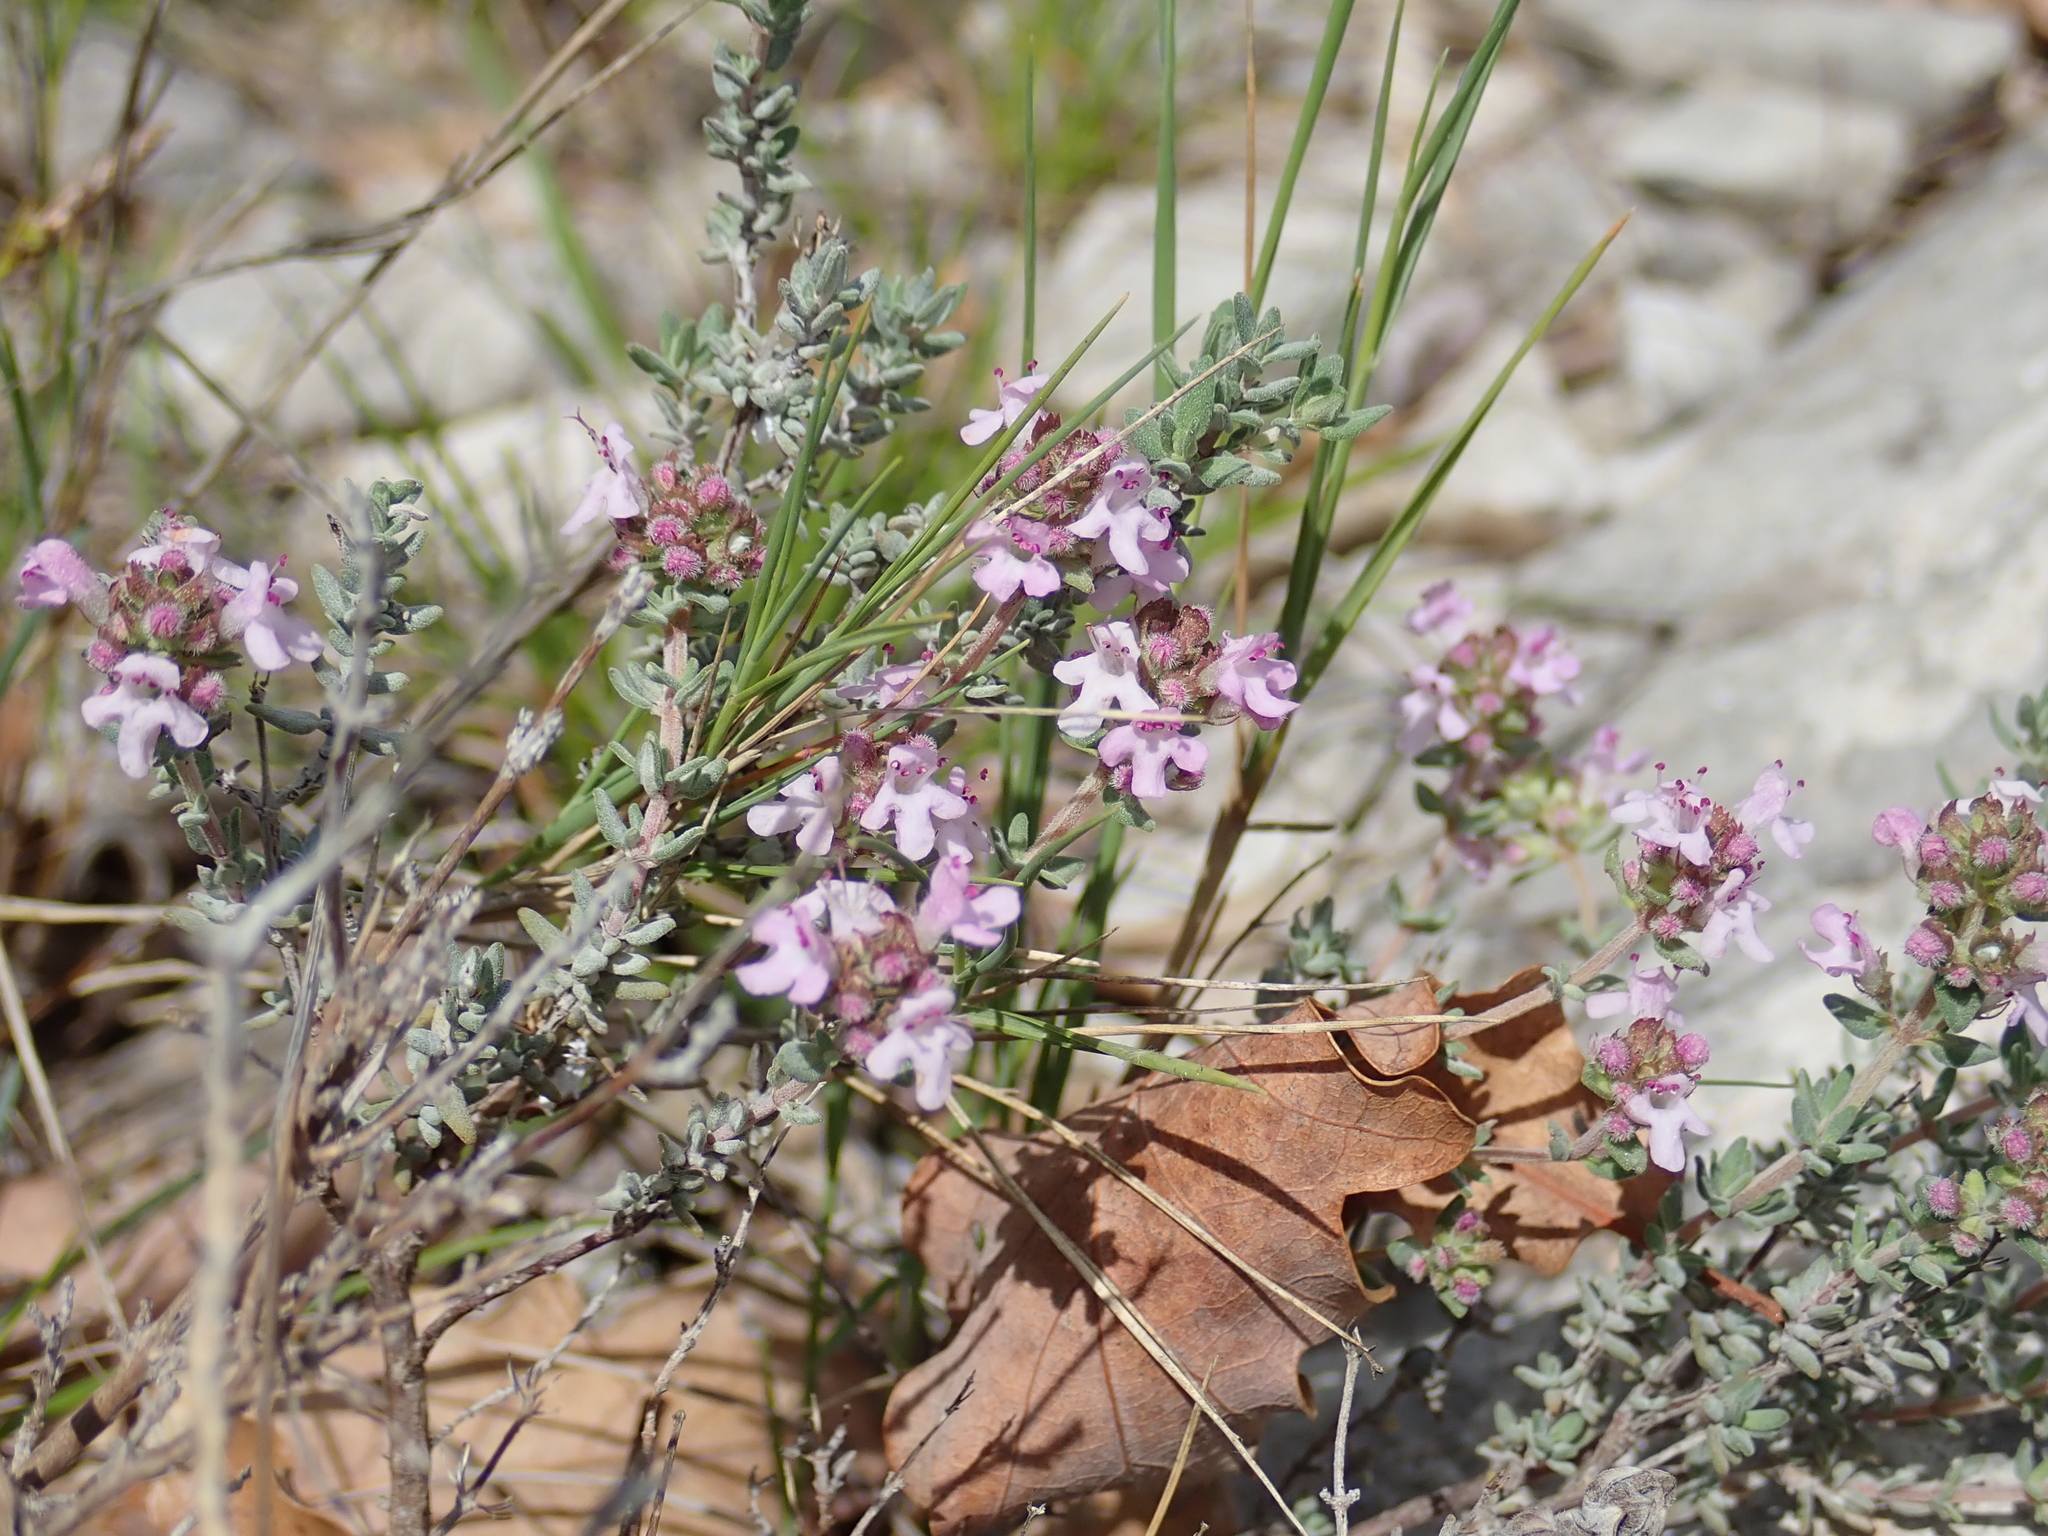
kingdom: Plantae
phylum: Tracheophyta
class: Magnoliopsida
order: Lamiales
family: Lamiaceae
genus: Thymus
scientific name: Thymus vulgaris
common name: Garden thyme
